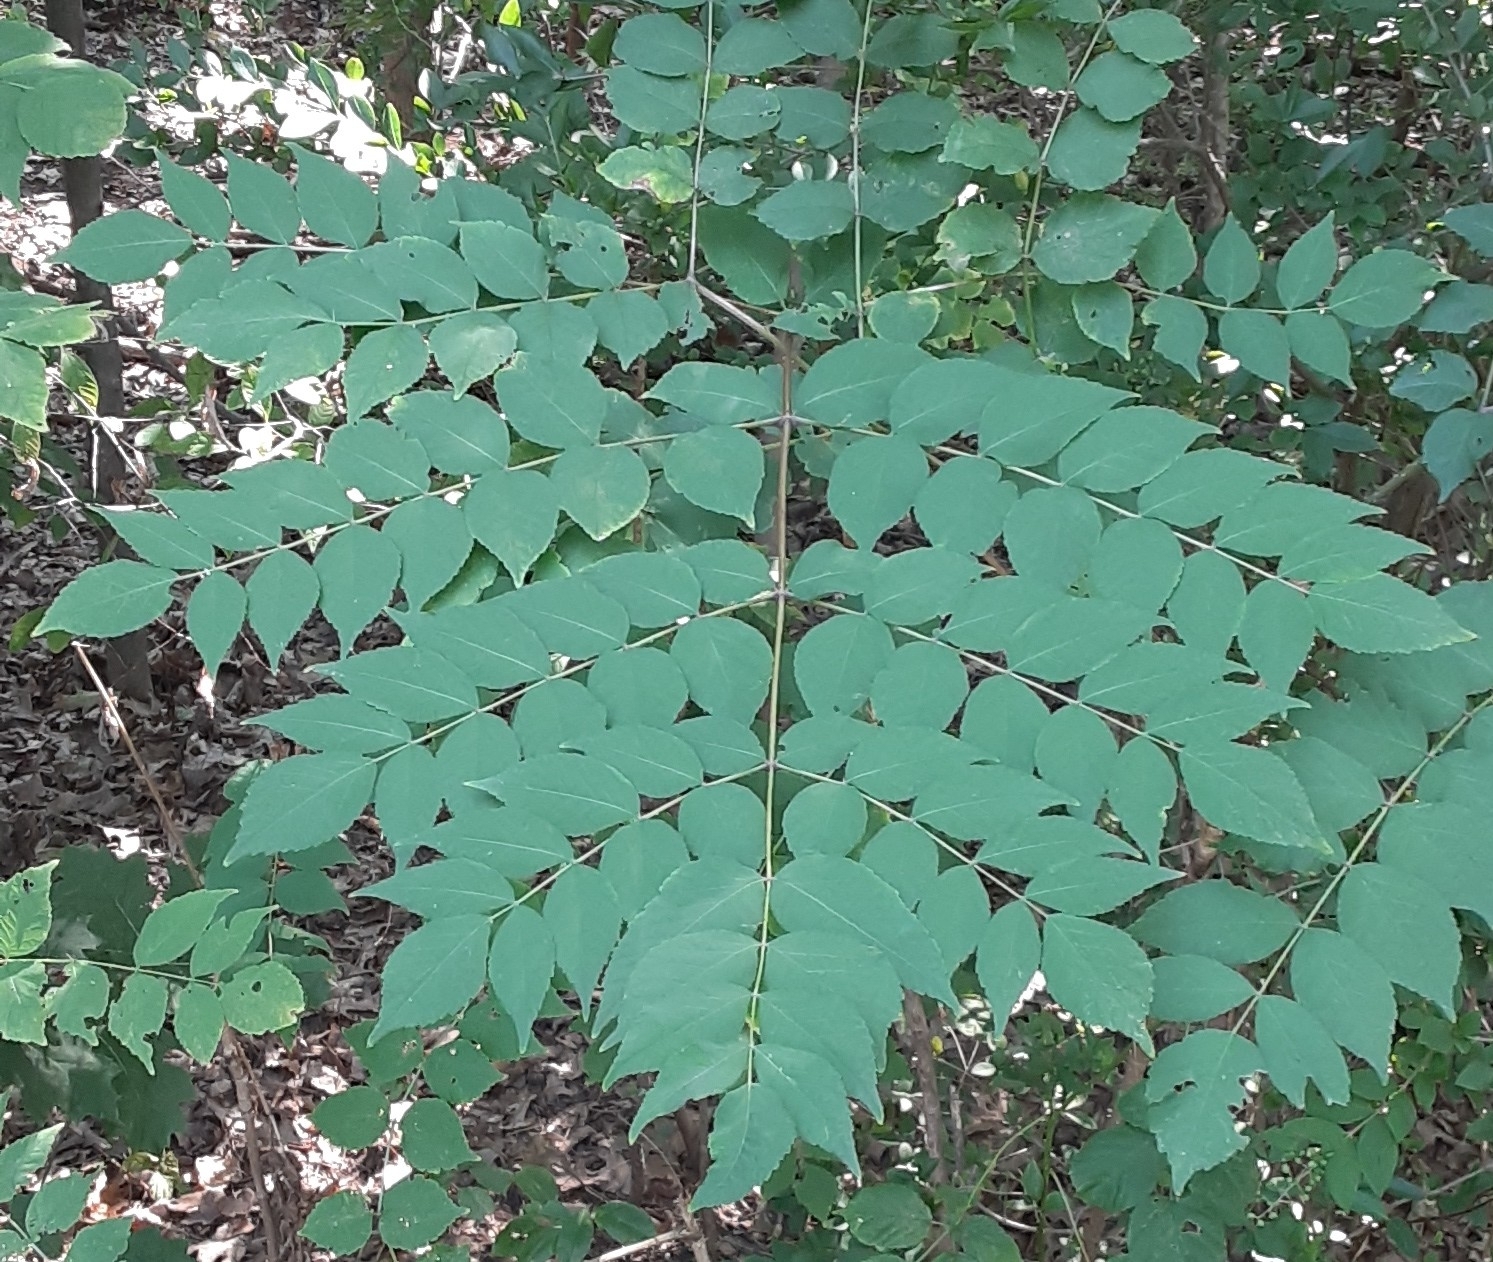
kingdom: Plantae
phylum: Tracheophyta
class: Magnoliopsida
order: Apiales
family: Araliaceae
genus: Aralia
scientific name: Aralia elata
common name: Japanese angelica-tree
